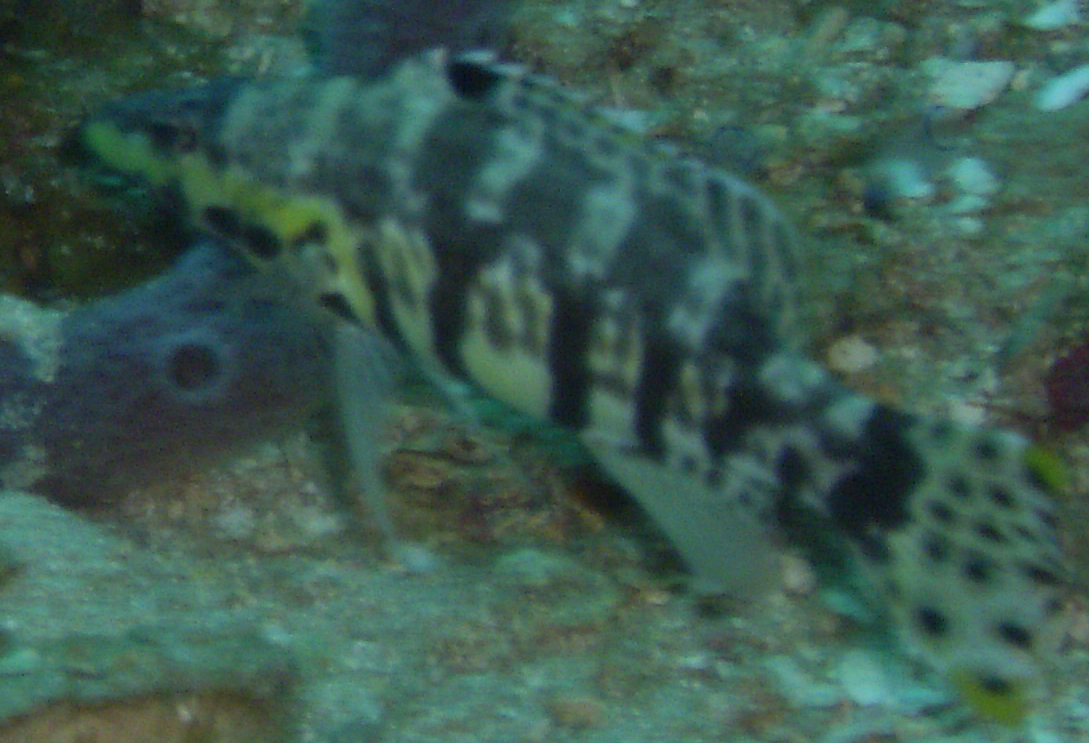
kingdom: Animalia
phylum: Chordata
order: Perciformes
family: Serranidae
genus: Serranus
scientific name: Serranus tigrinus
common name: Harlequin bass
